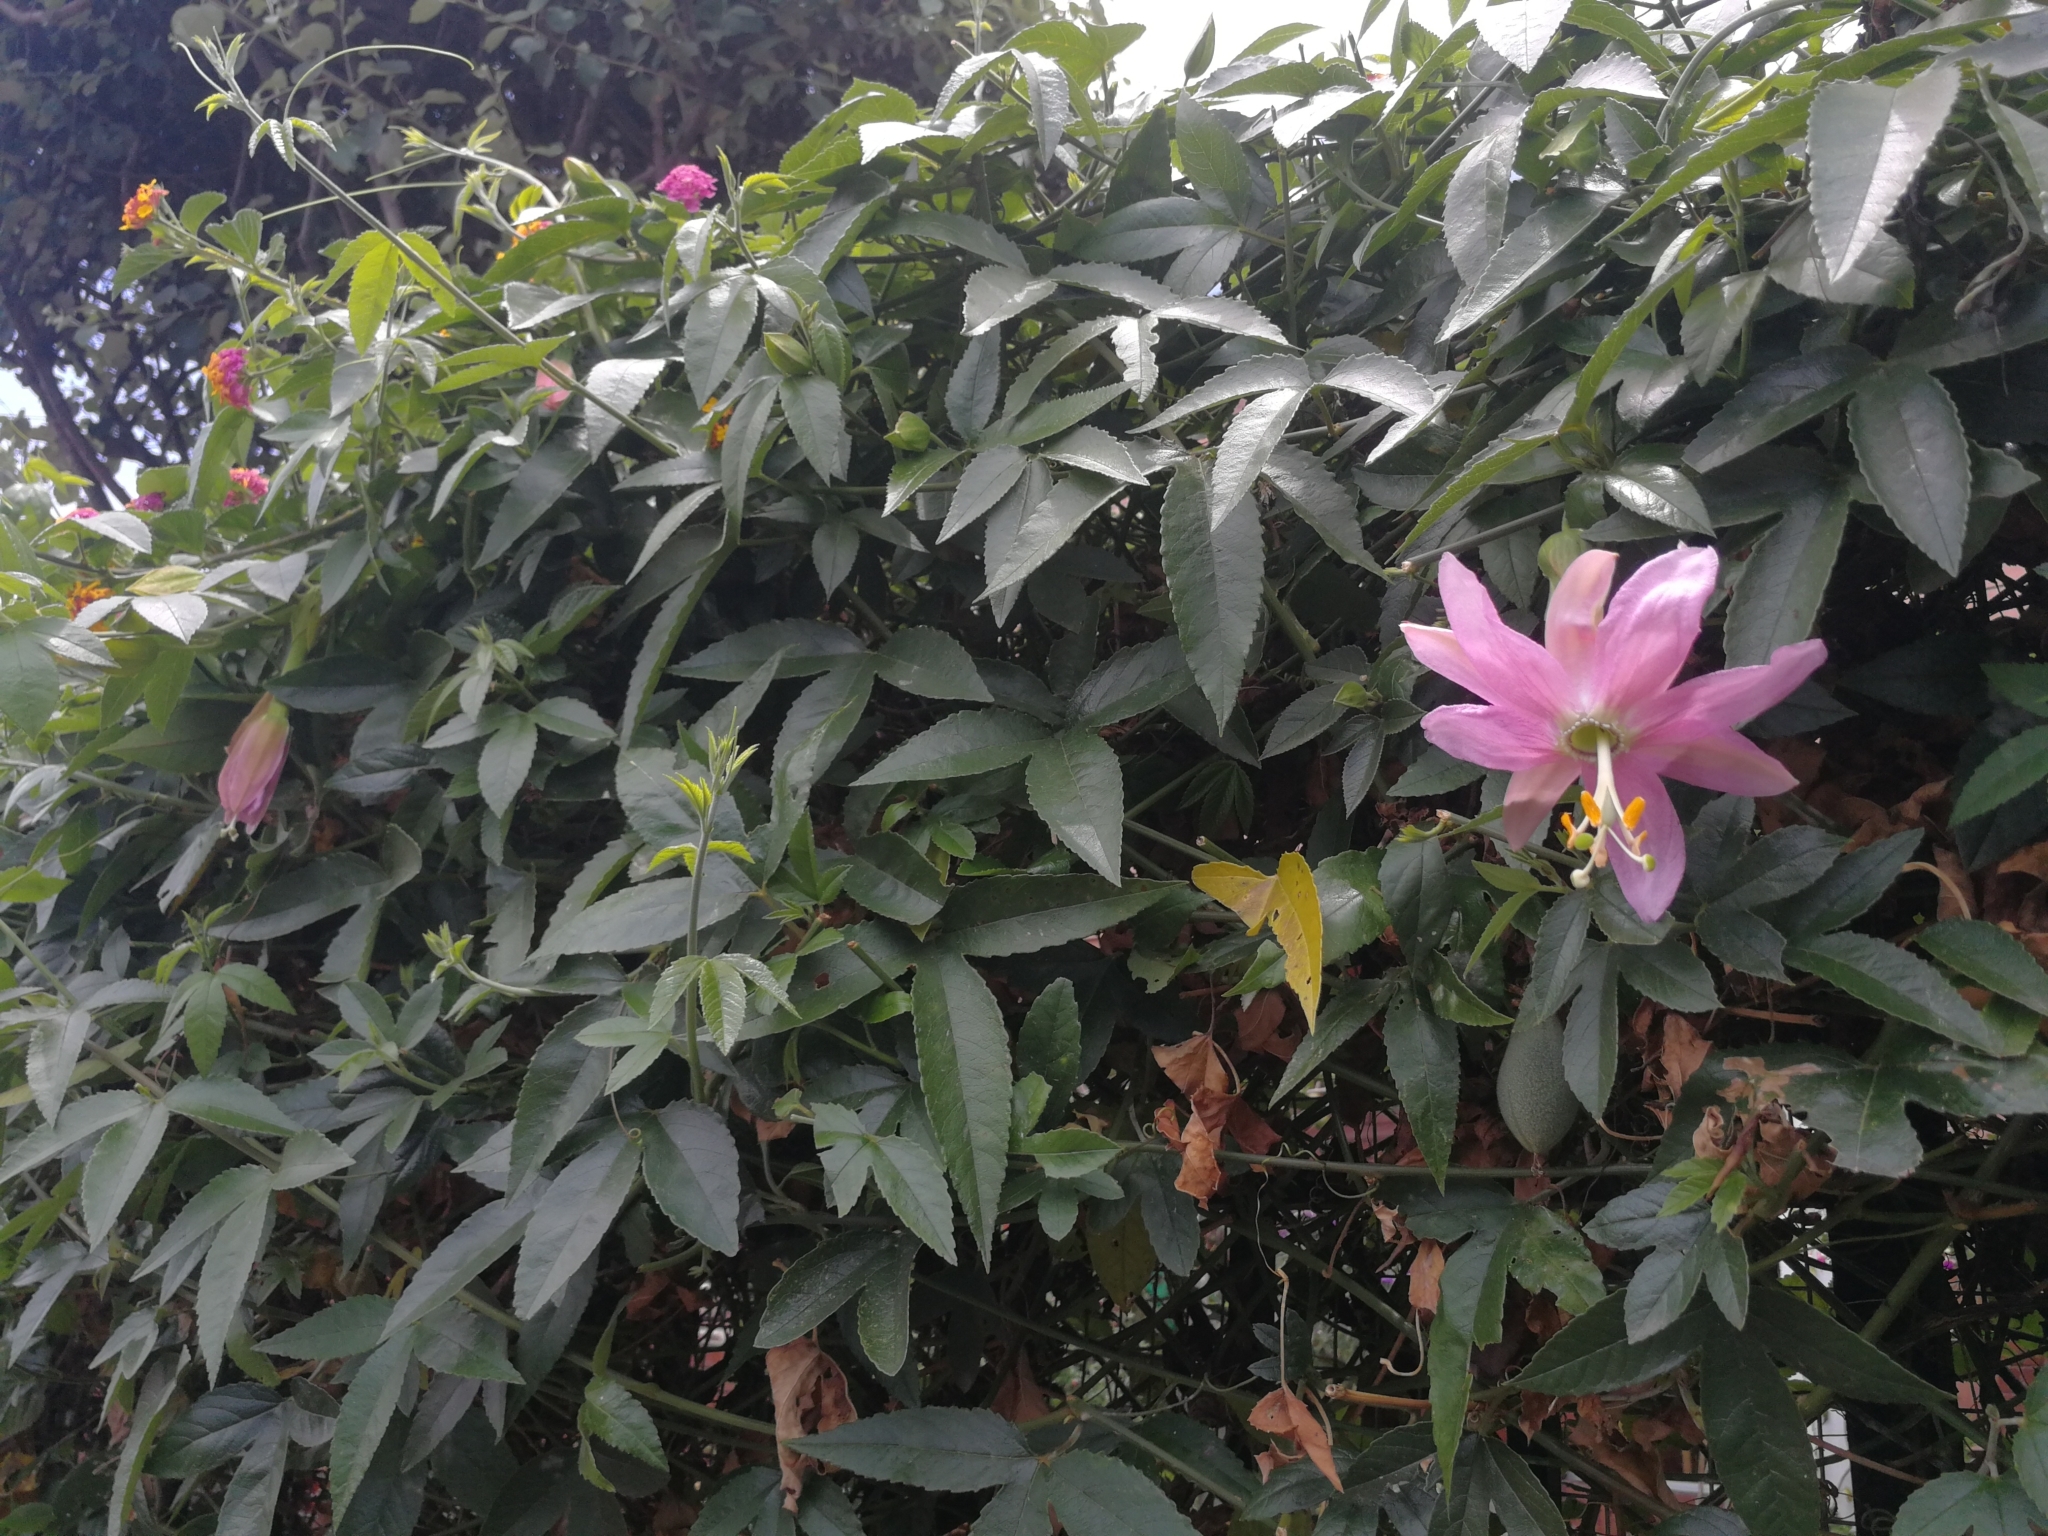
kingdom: Plantae
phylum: Tracheophyta
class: Magnoliopsida
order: Malpighiales
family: Passifloraceae
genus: Passiflora
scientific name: Passiflora tarminiana
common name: Banana poka
